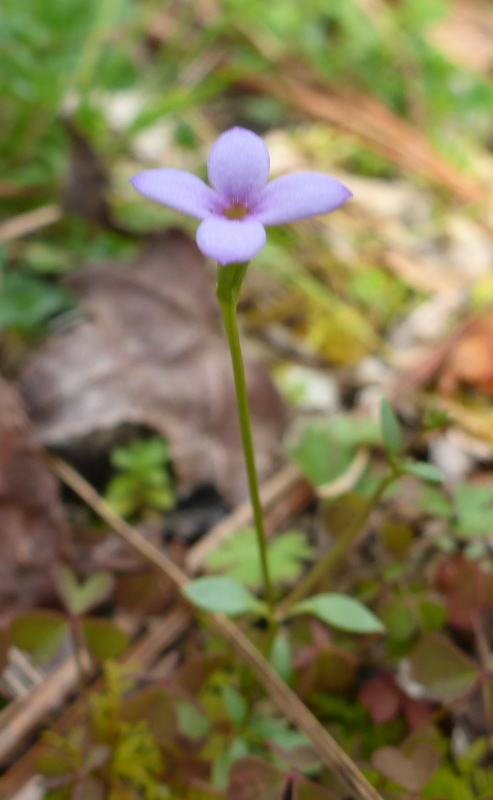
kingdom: Plantae
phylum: Tracheophyta
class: Magnoliopsida
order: Gentianales
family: Rubiaceae
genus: Houstonia
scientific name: Houstonia pusilla
